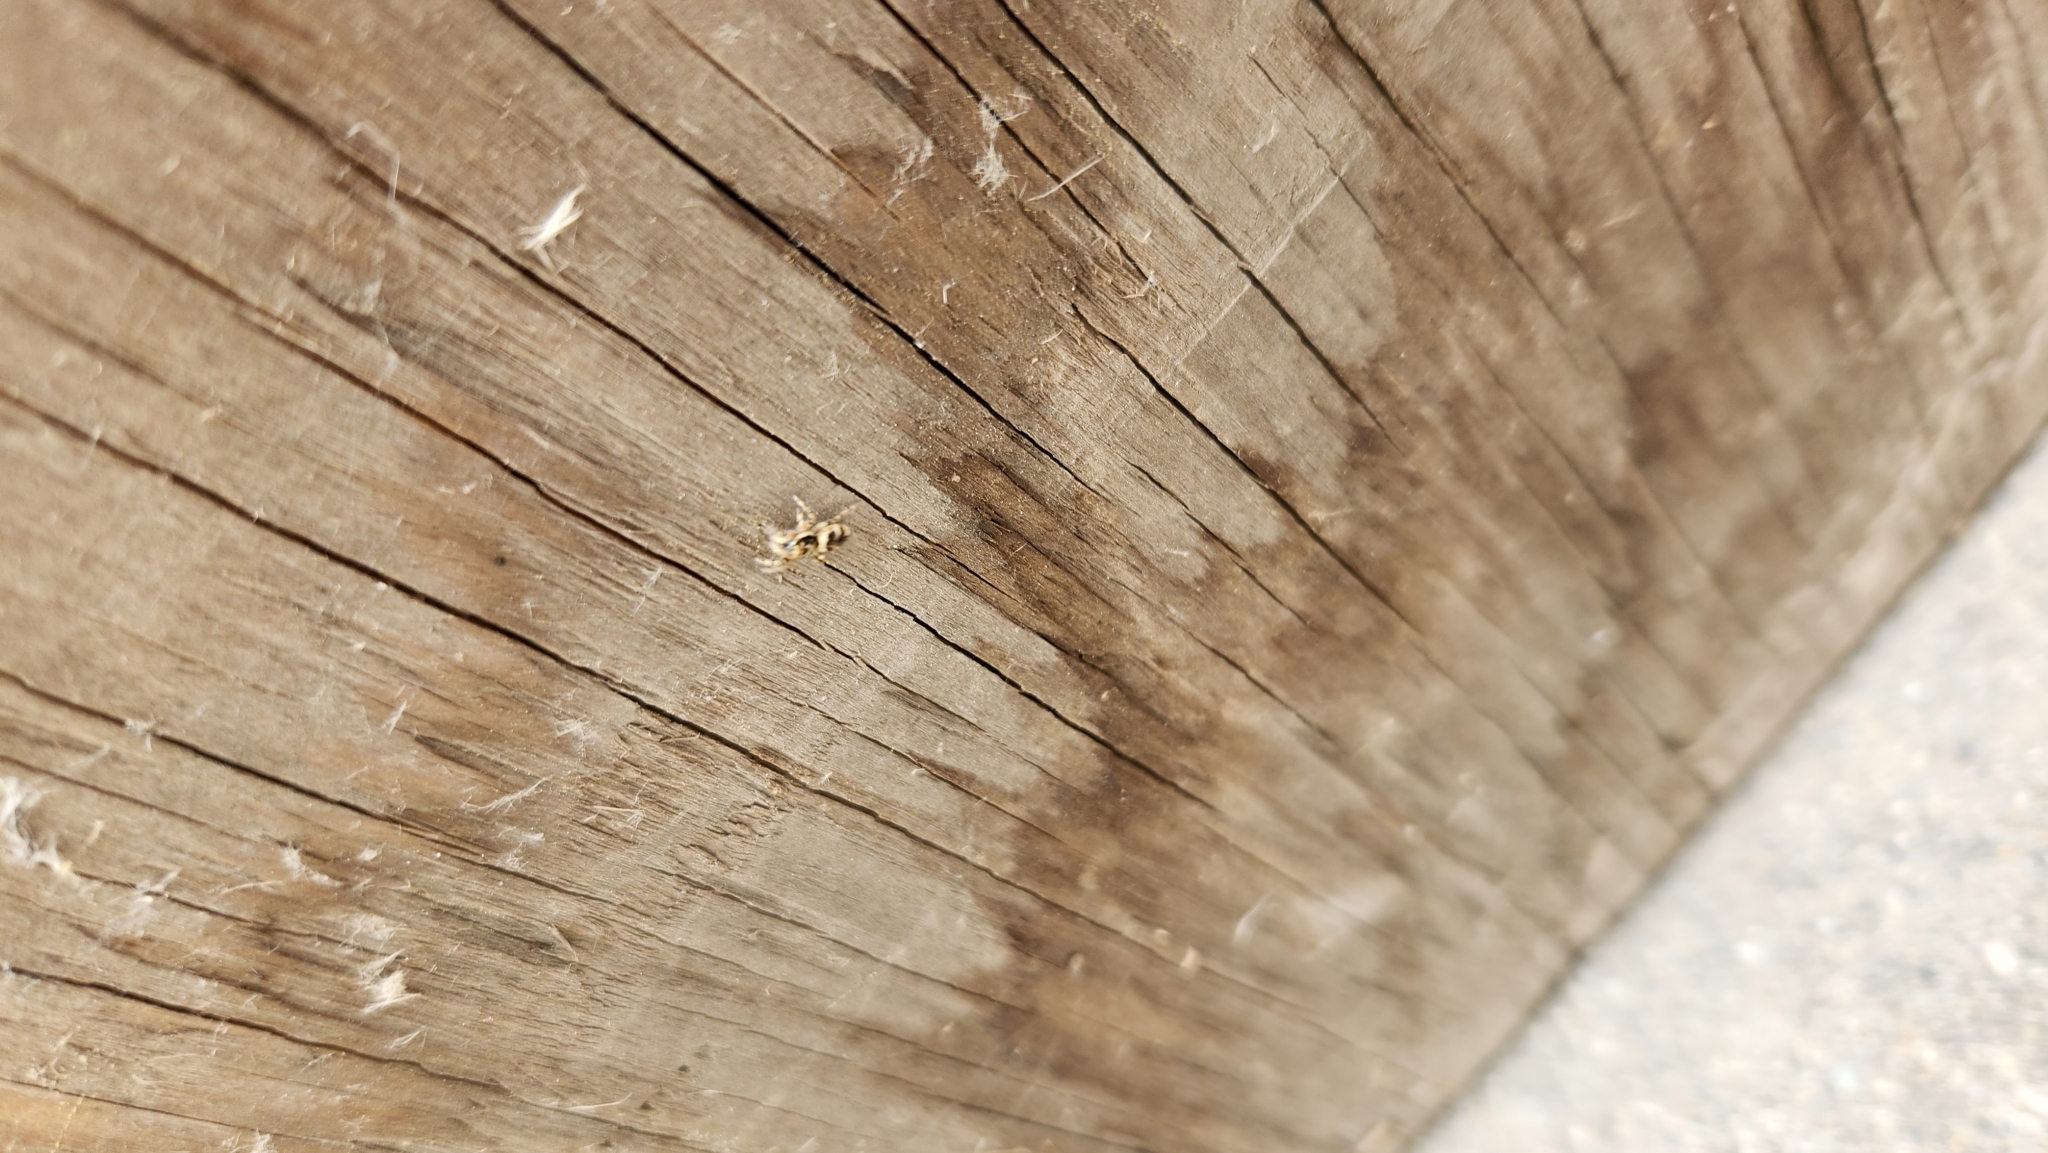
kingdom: Animalia
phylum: Arthropoda
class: Arachnida
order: Araneae
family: Salticidae
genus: Salticus
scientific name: Salticus scenicus
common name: Zebra jumper
